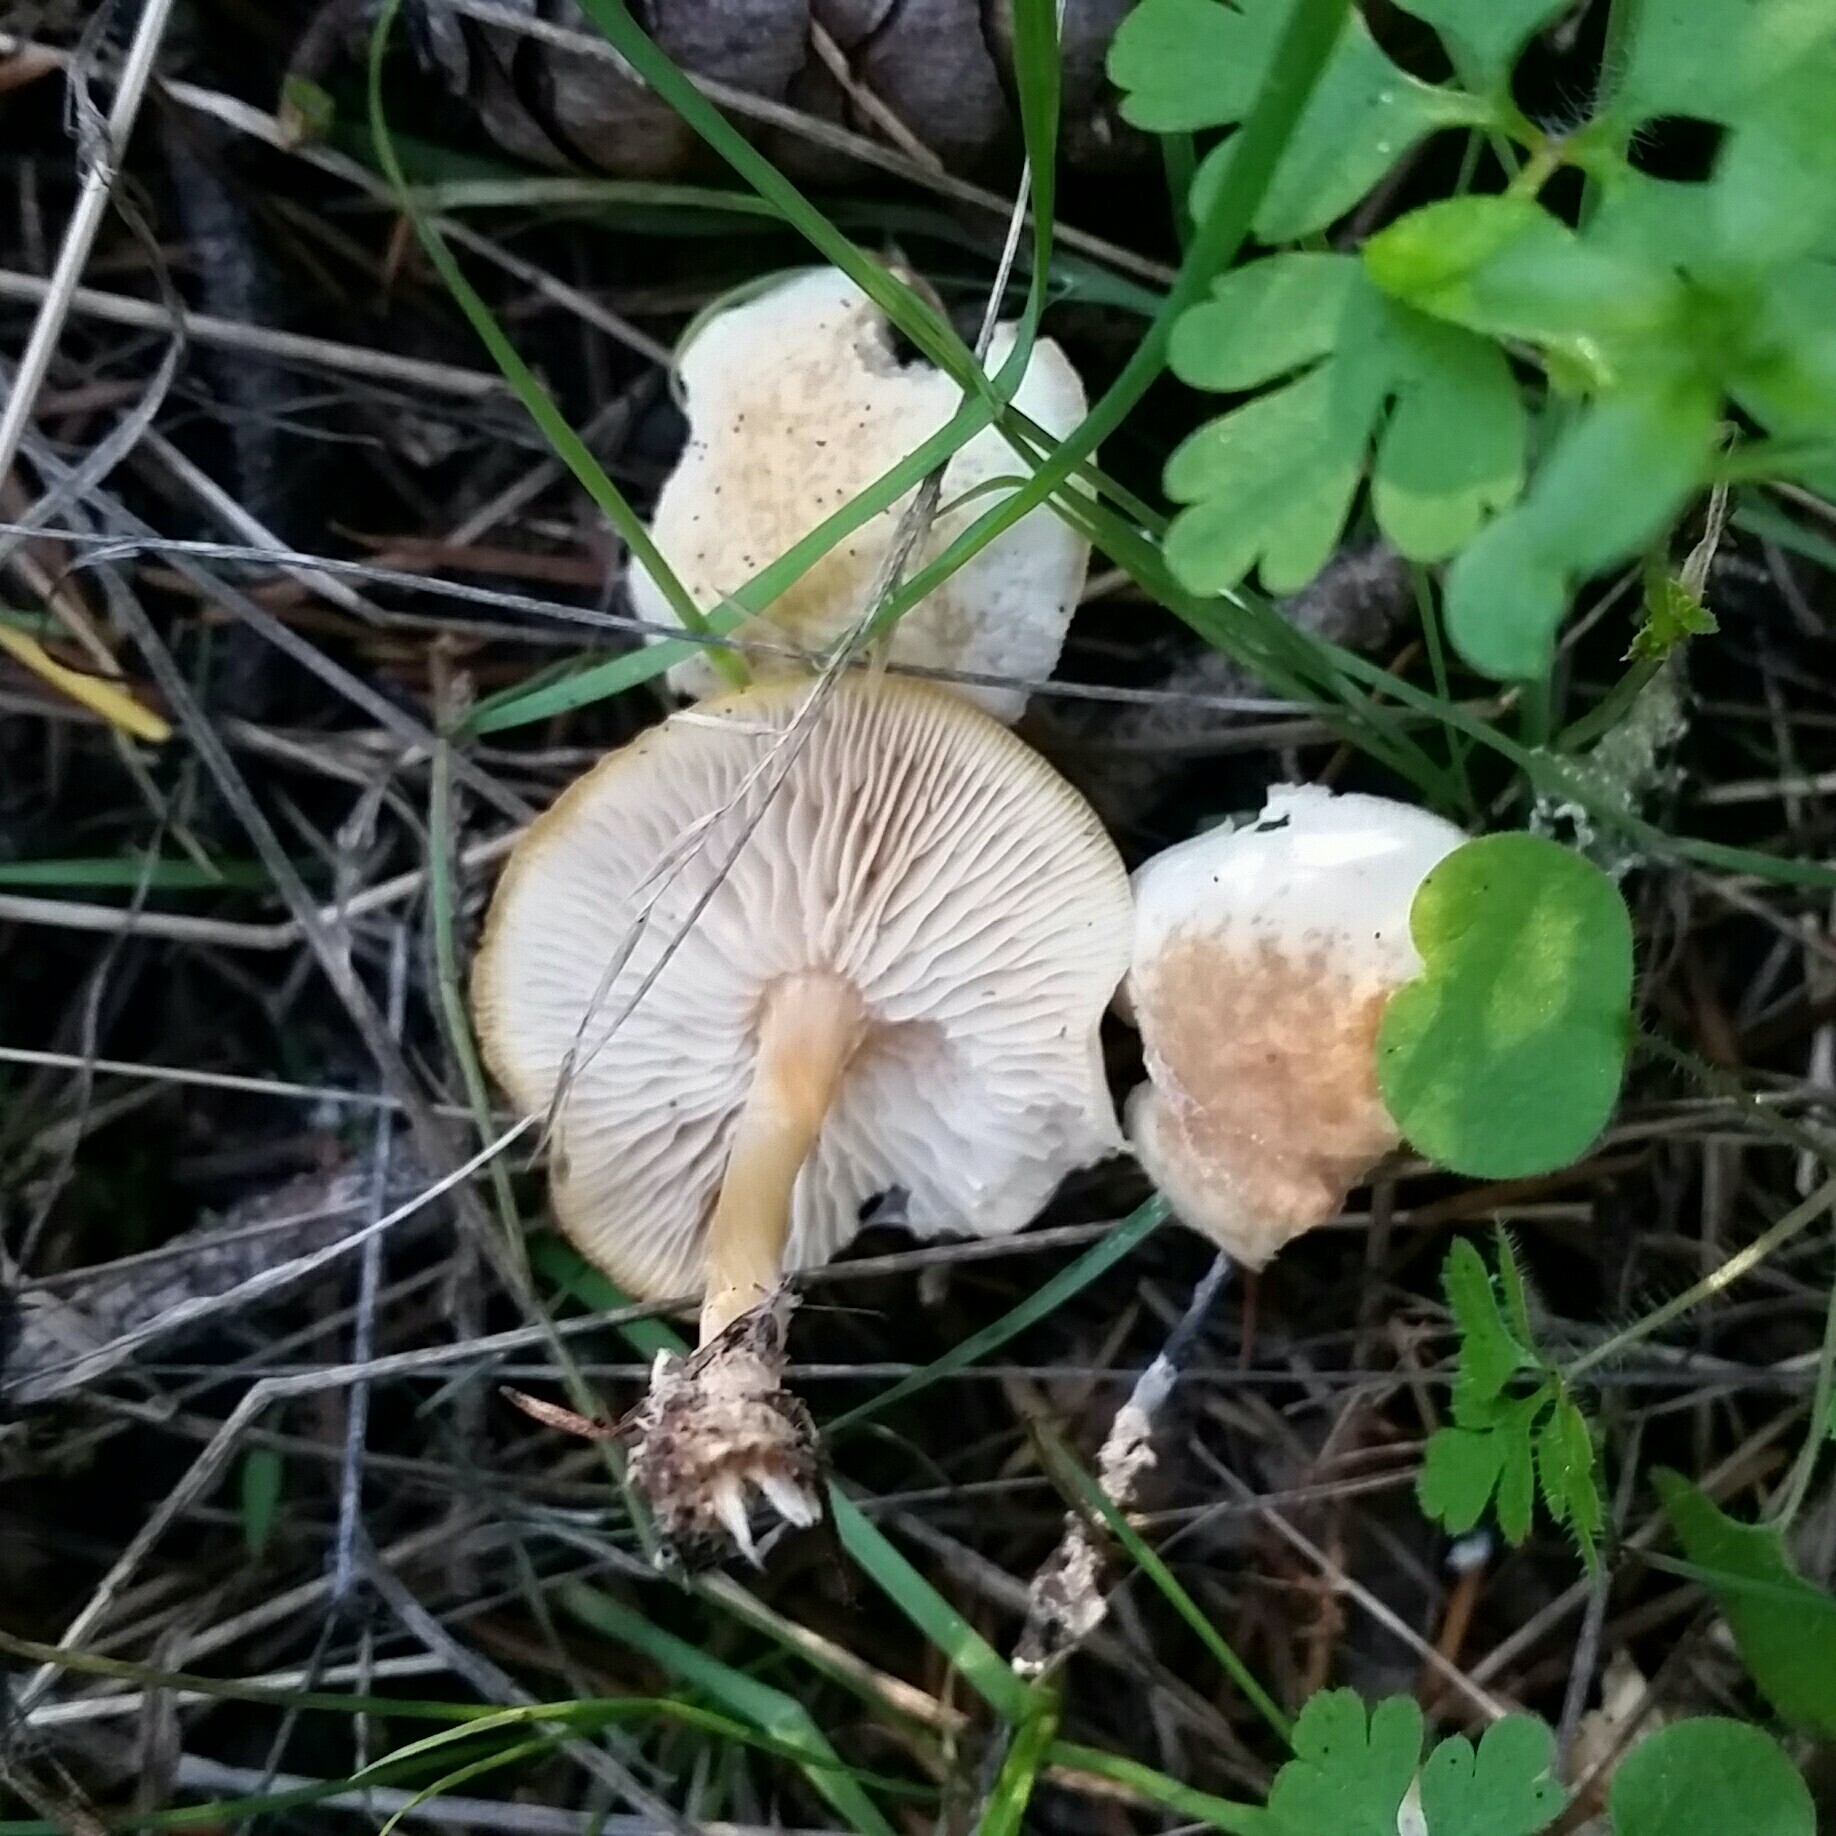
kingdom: Fungi
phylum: Basidiomycota
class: Agaricomycetes
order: Agaricales
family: Omphalotaceae
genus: Gymnopus
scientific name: Gymnopus dryophilus
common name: Penny top
